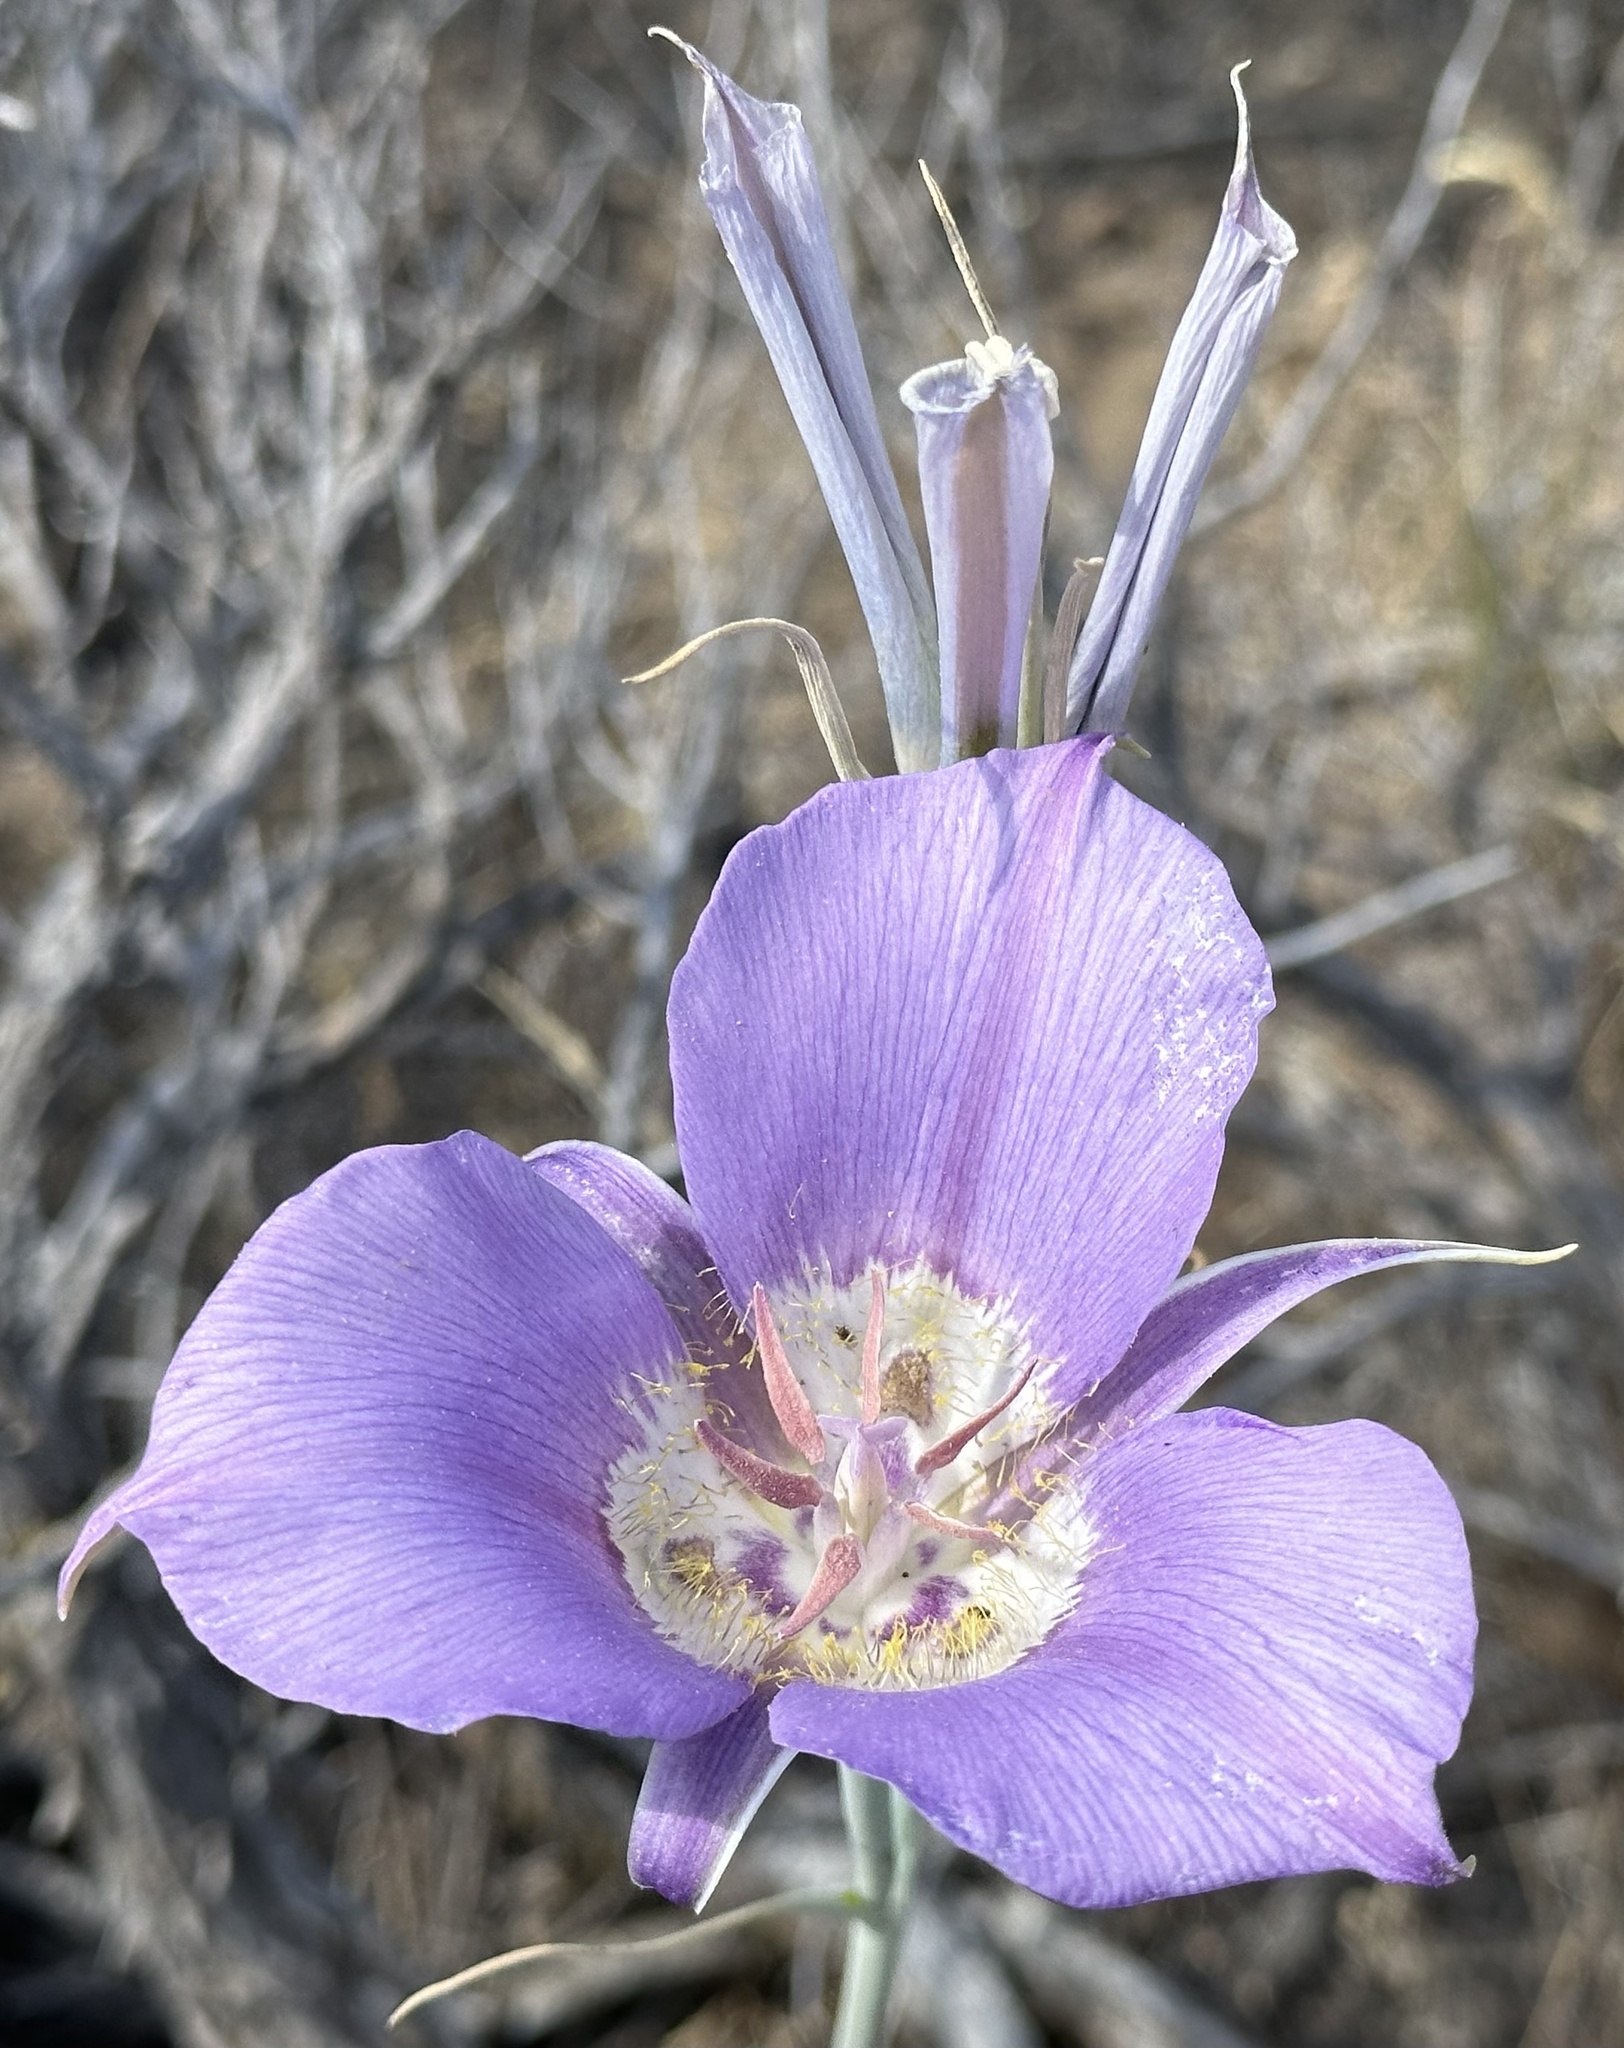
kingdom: Plantae
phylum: Tracheophyta
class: Liliopsida
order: Liliales
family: Liliaceae
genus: Calochortus
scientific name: Calochortus macrocarpus
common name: Green-band mariposa lily
